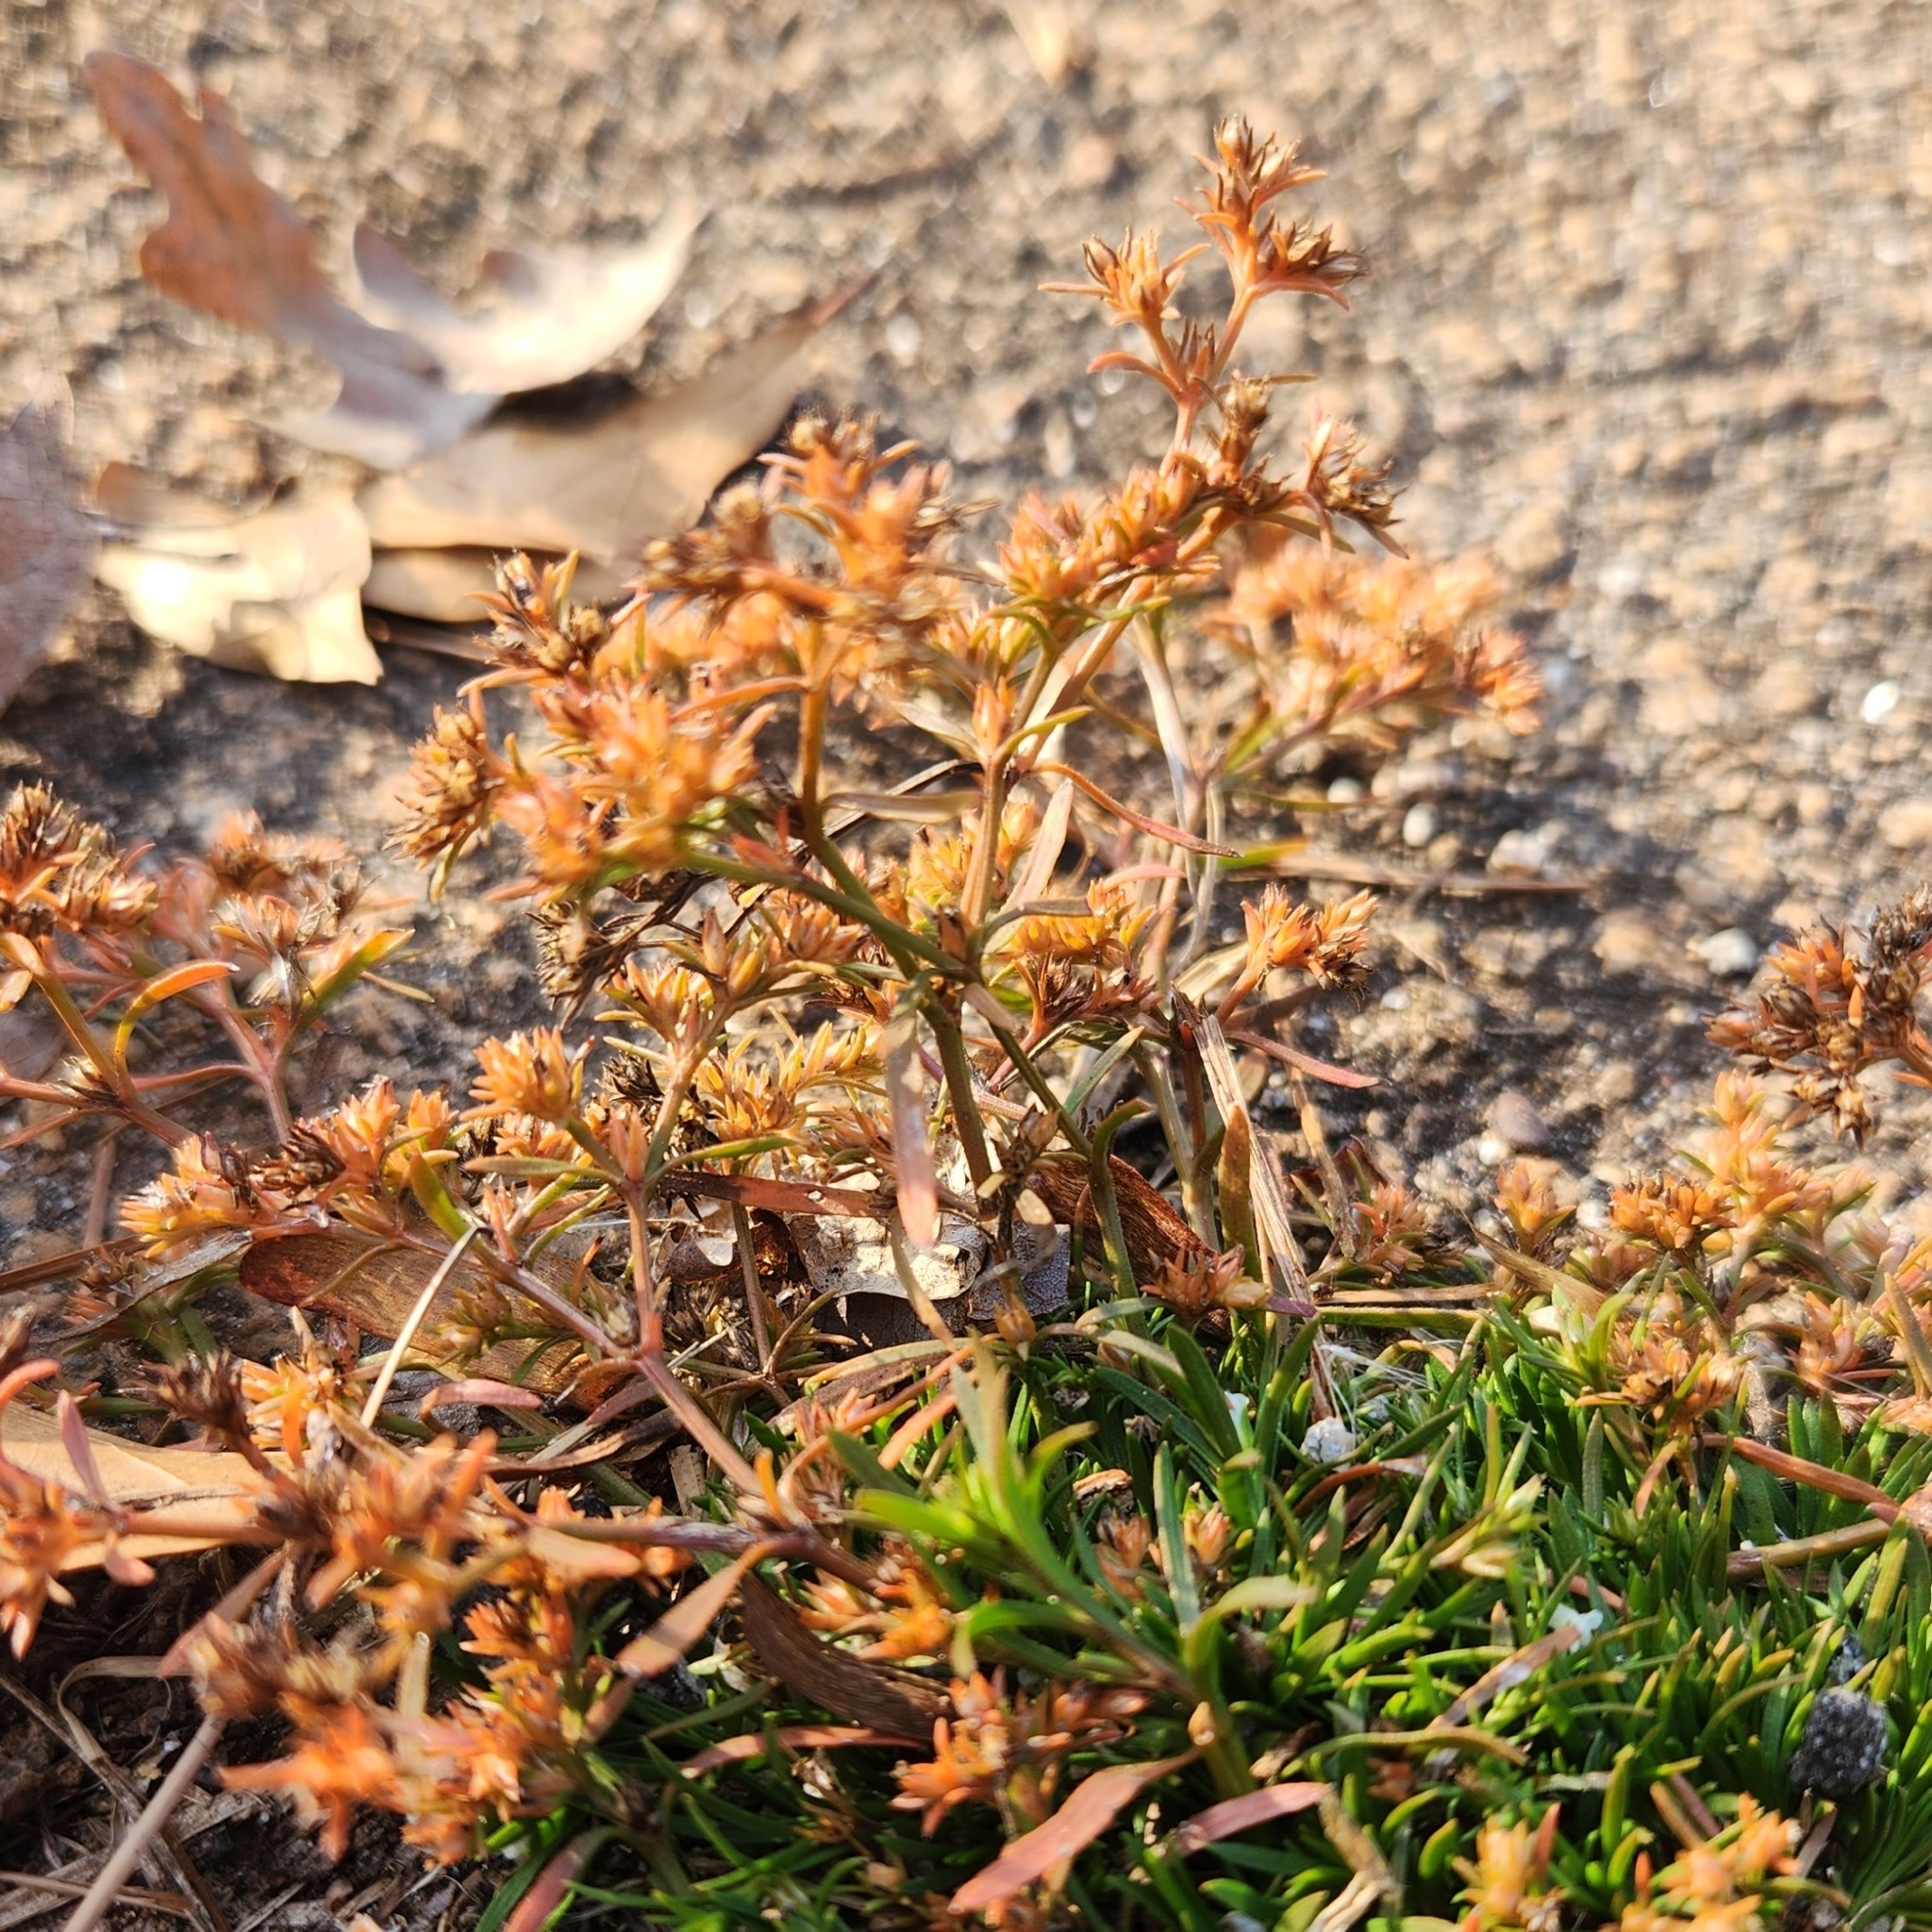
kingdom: Plantae
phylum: Tracheophyta
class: Magnoliopsida
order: Lamiales
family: Tetrachondraceae
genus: Polypremum
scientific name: Polypremum procumbens
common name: Juniper-leaf
